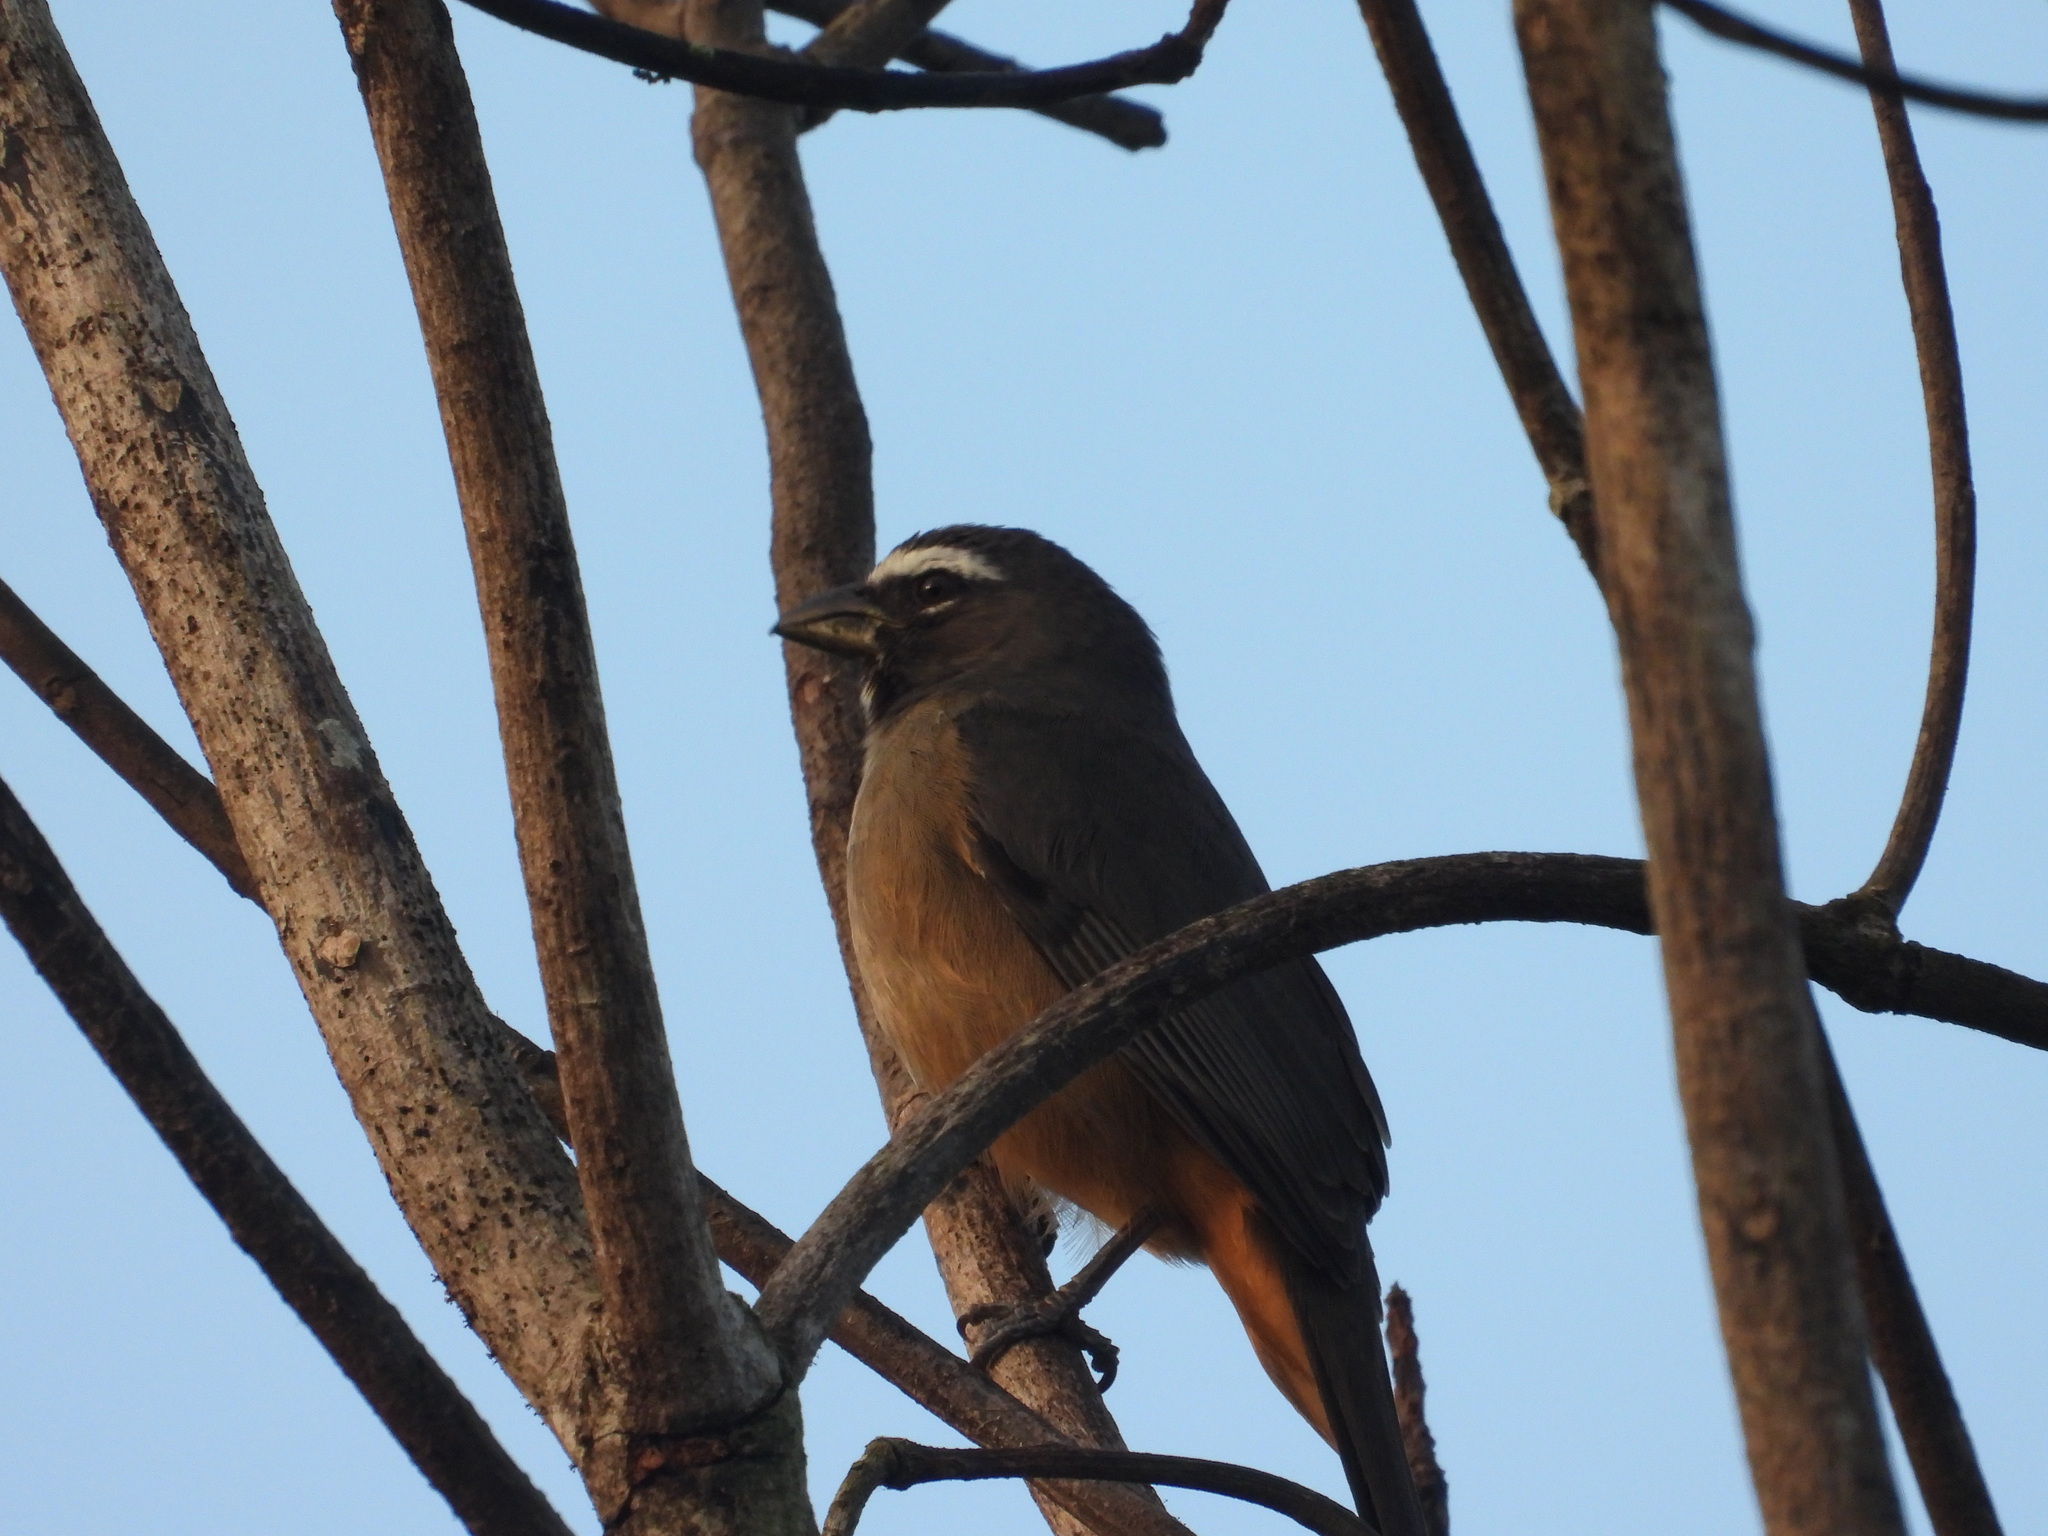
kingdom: Animalia
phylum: Chordata
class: Aves
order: Passeriformes
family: Thraupidae
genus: Saltator
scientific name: Saltator grandis
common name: Cinnamon-bellied saltator
